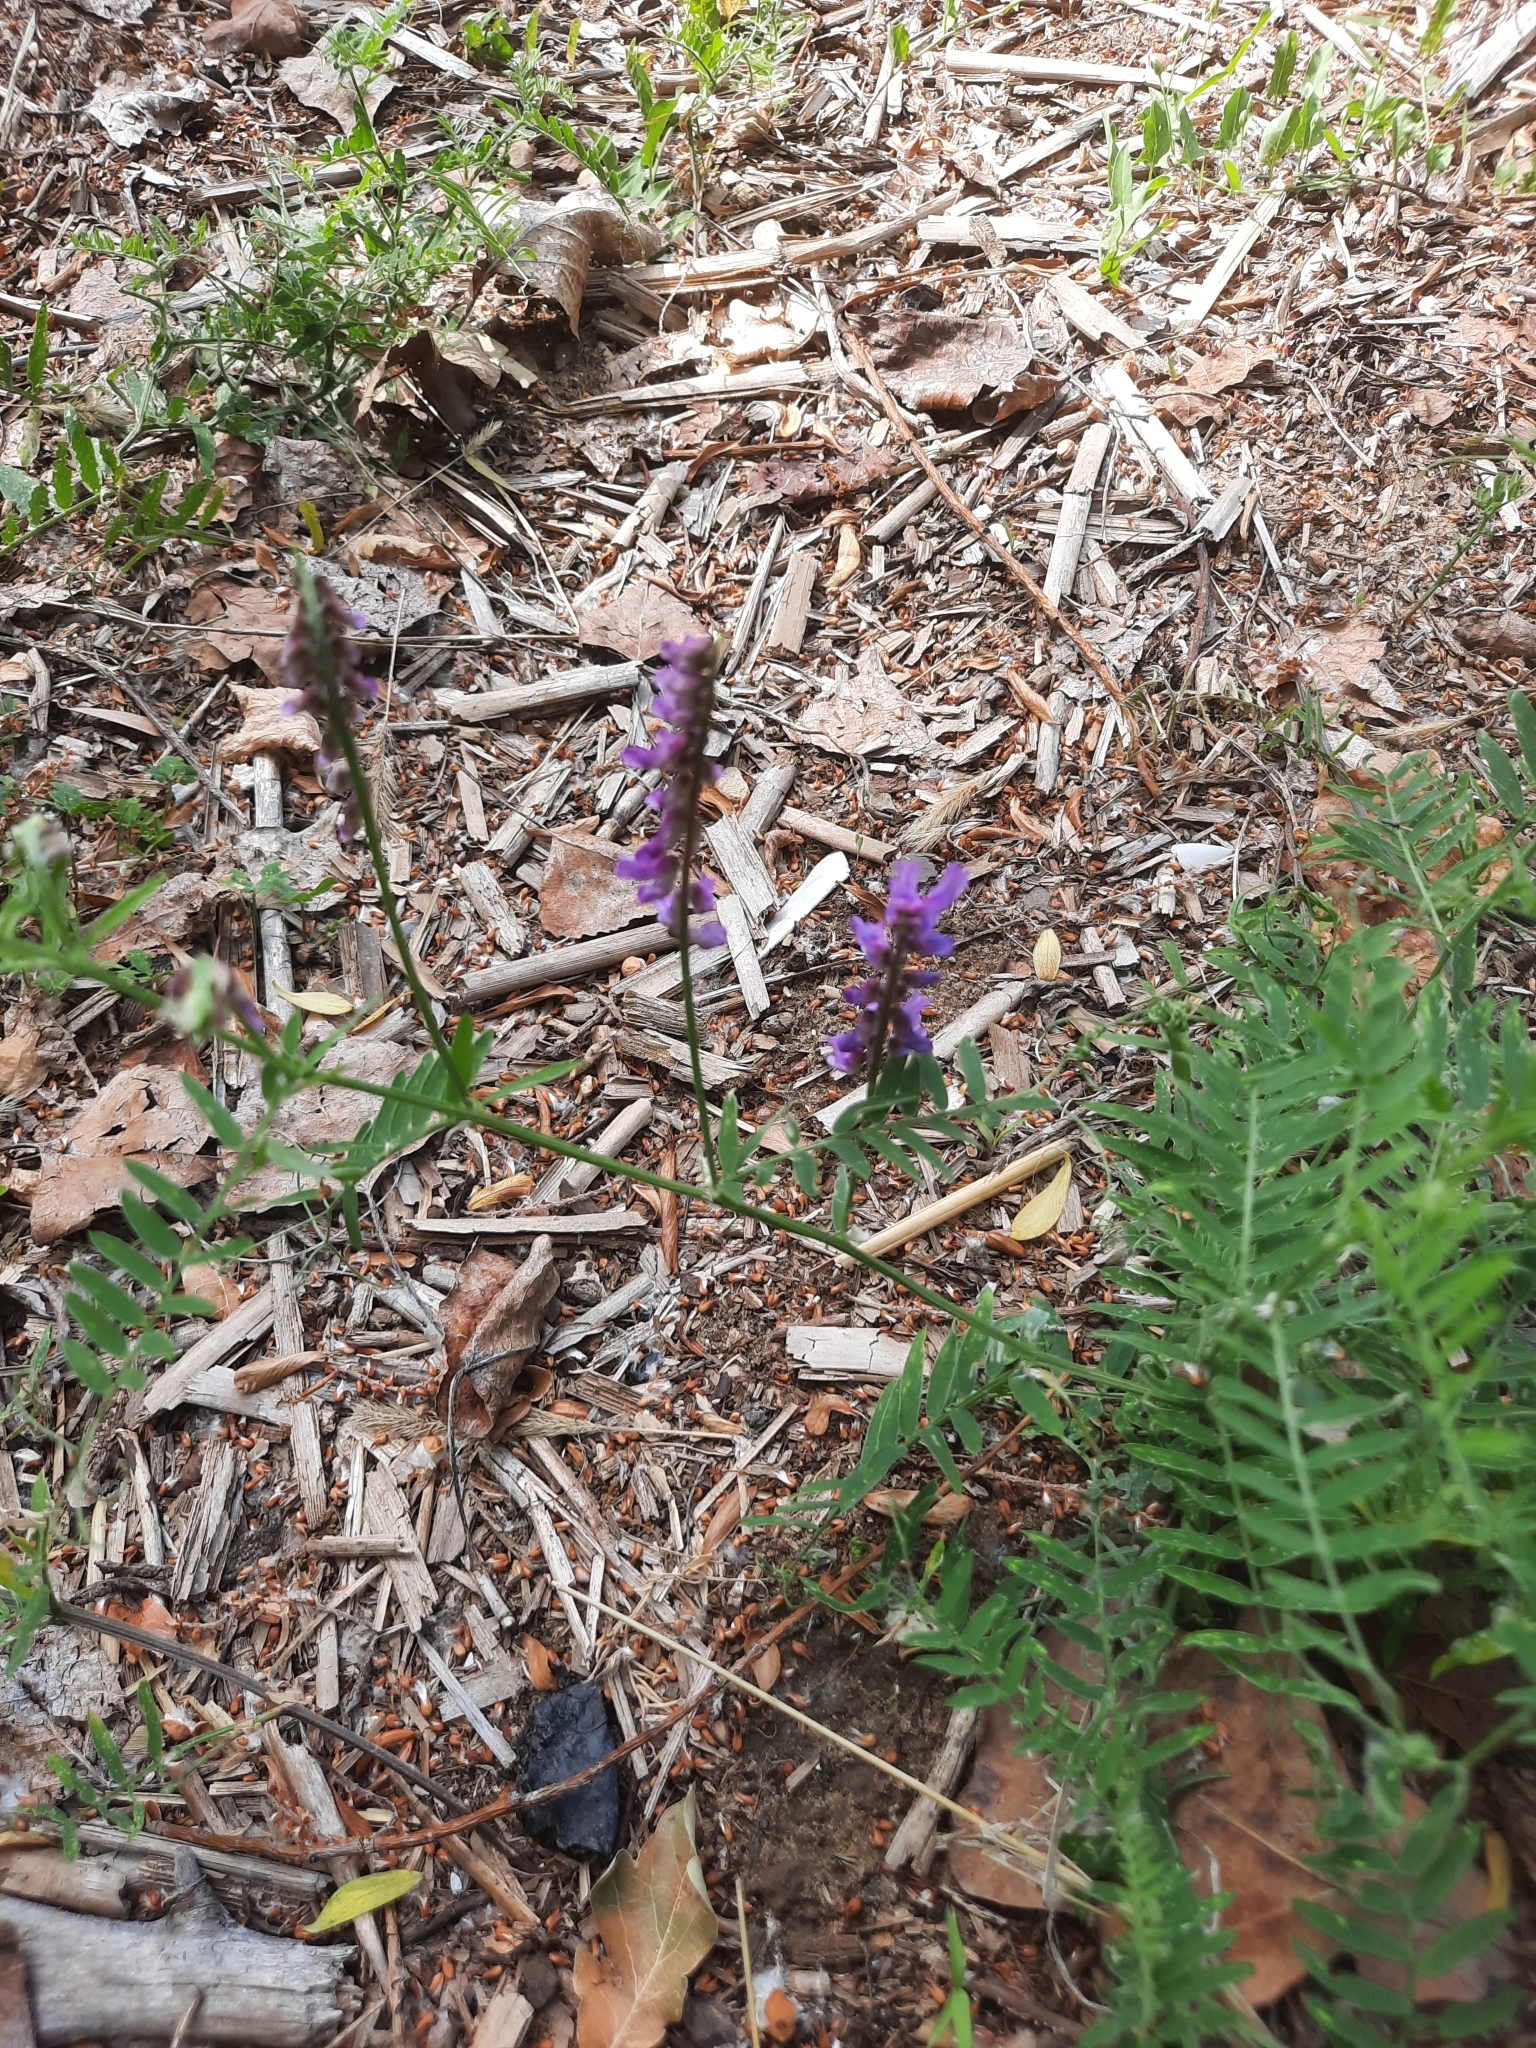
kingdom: Plantae
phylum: Tracheophyta
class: Magnoliopsida
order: Fabales
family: Fabaceae
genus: Vicia
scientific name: Vicia cracca
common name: Bird vetch
